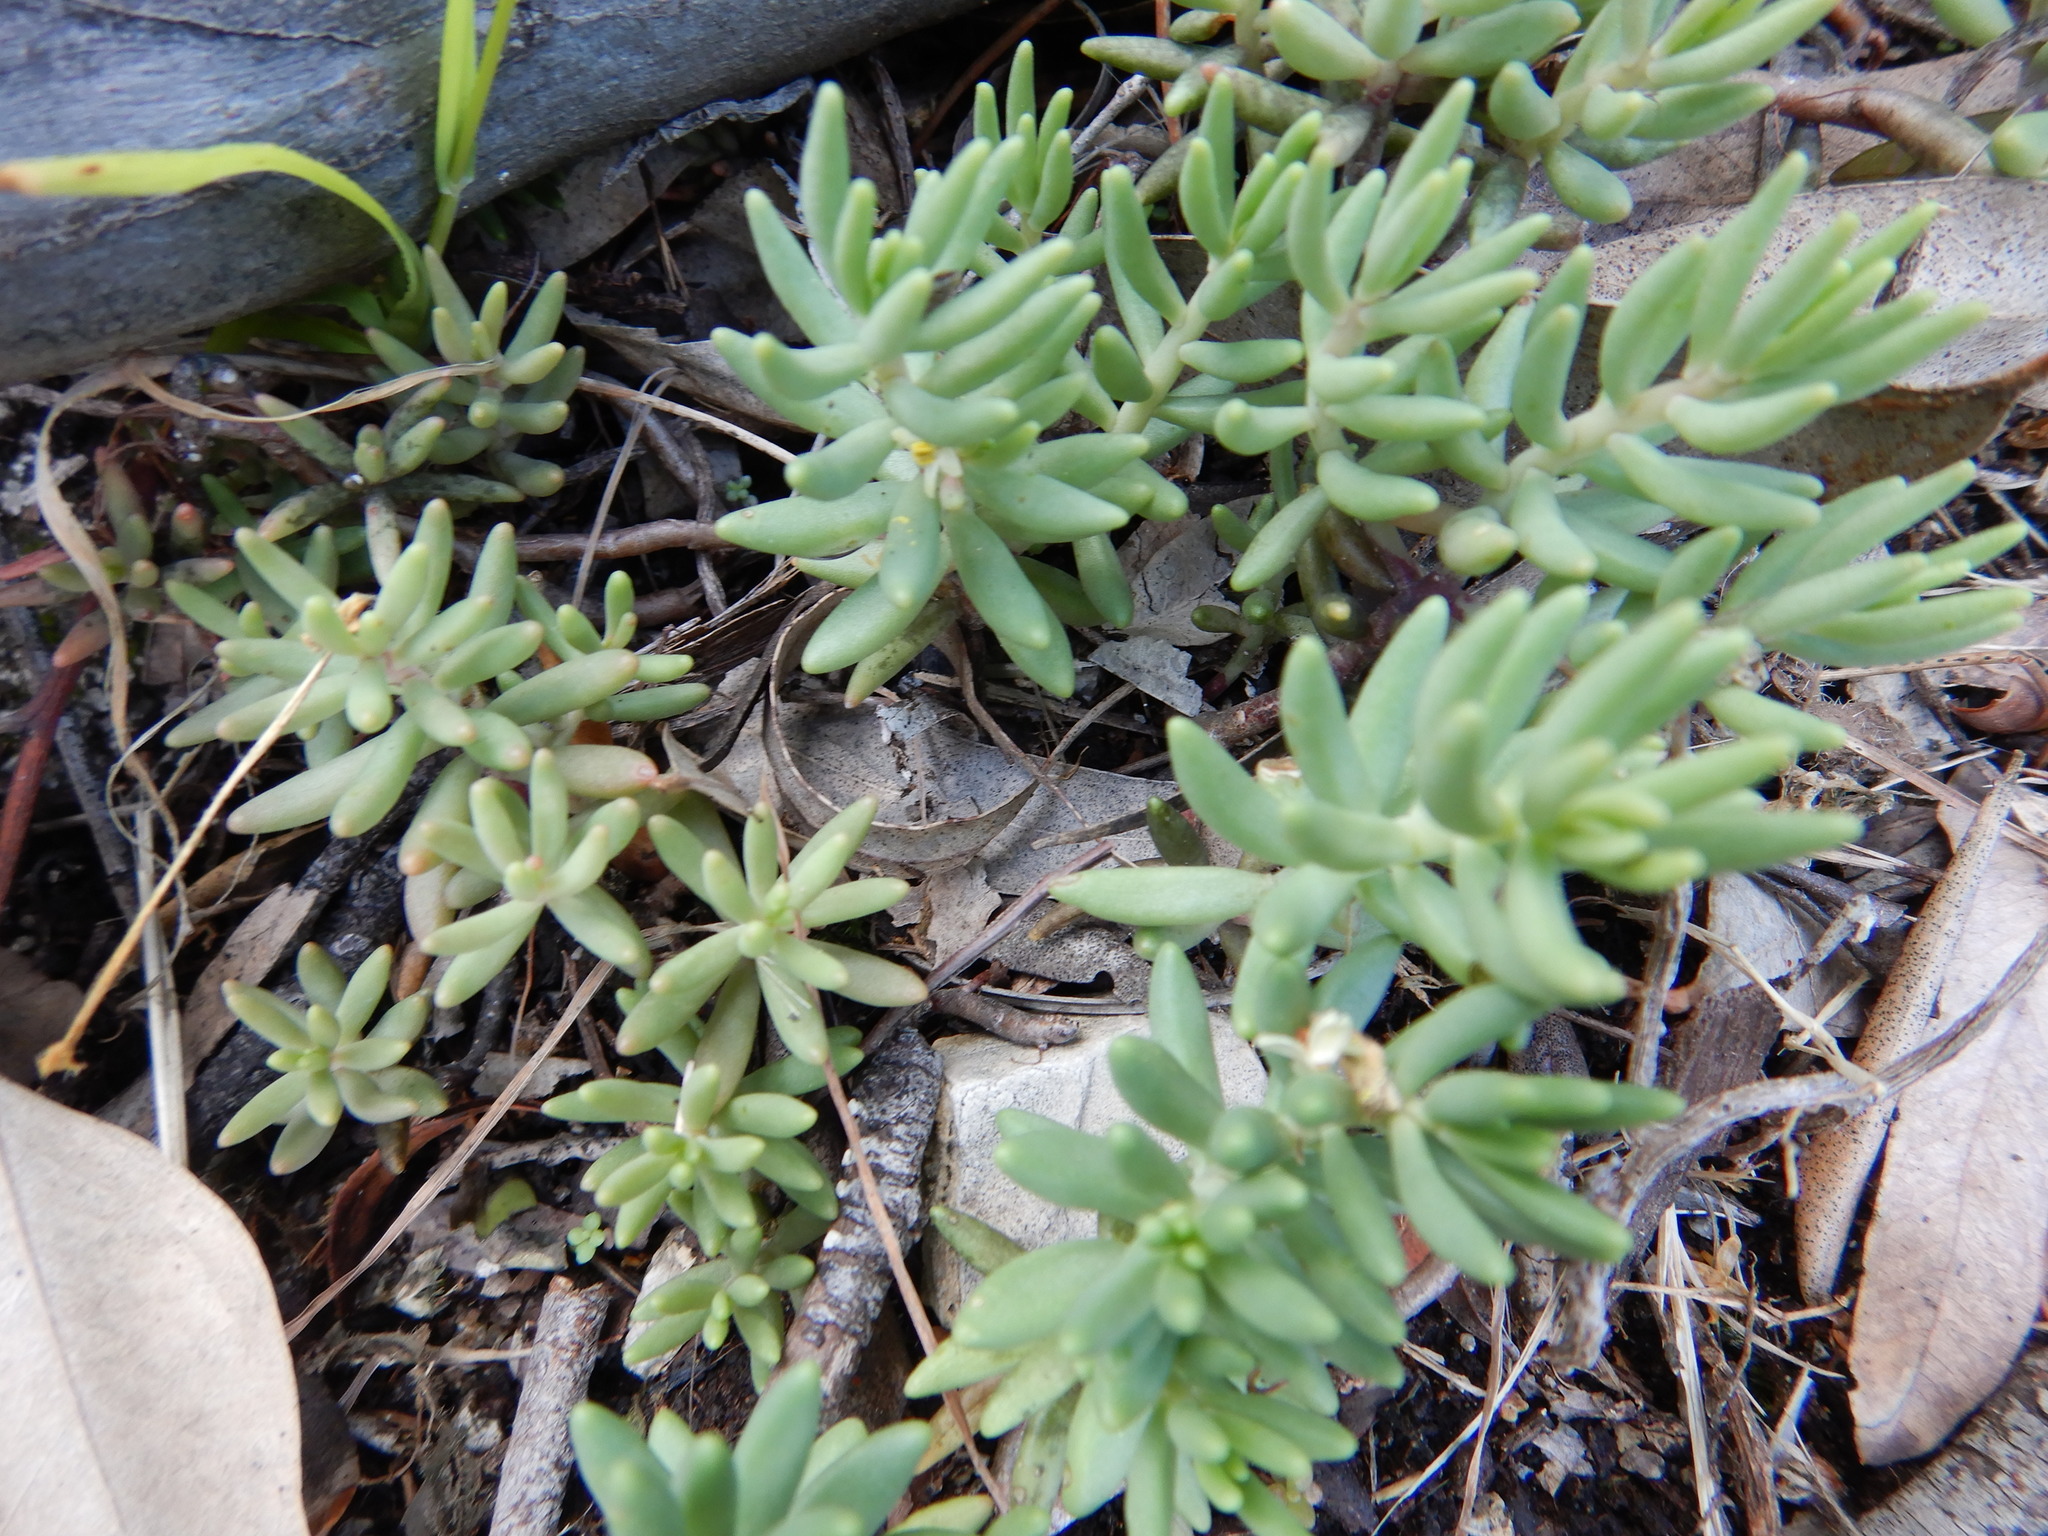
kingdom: Plantae
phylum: Tracheophyta
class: Magnoliopsida
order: Saxifragales
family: Crassulaceae
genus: Sedum
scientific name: Sedum album
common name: White stonecrop
